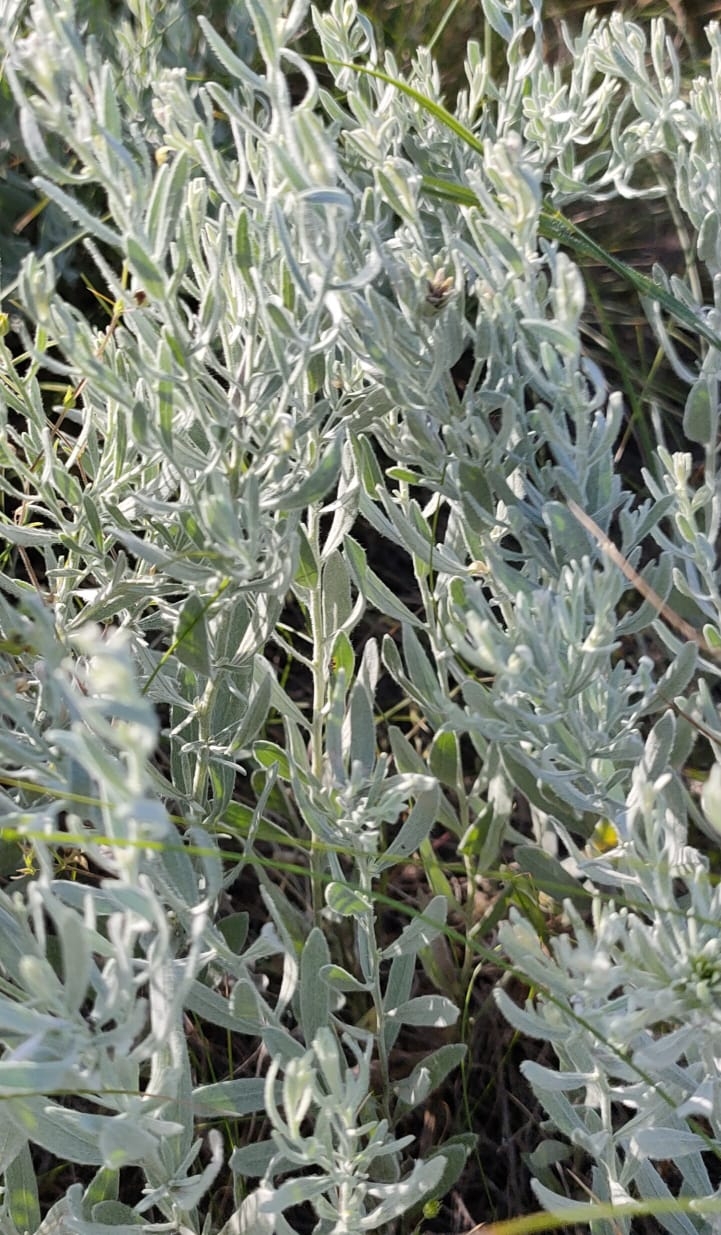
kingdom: Plantae
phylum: Tracheophyta
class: Magnoliopsida
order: Asterales
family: Asteraceae
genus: Galatella
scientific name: Galatella villosa
